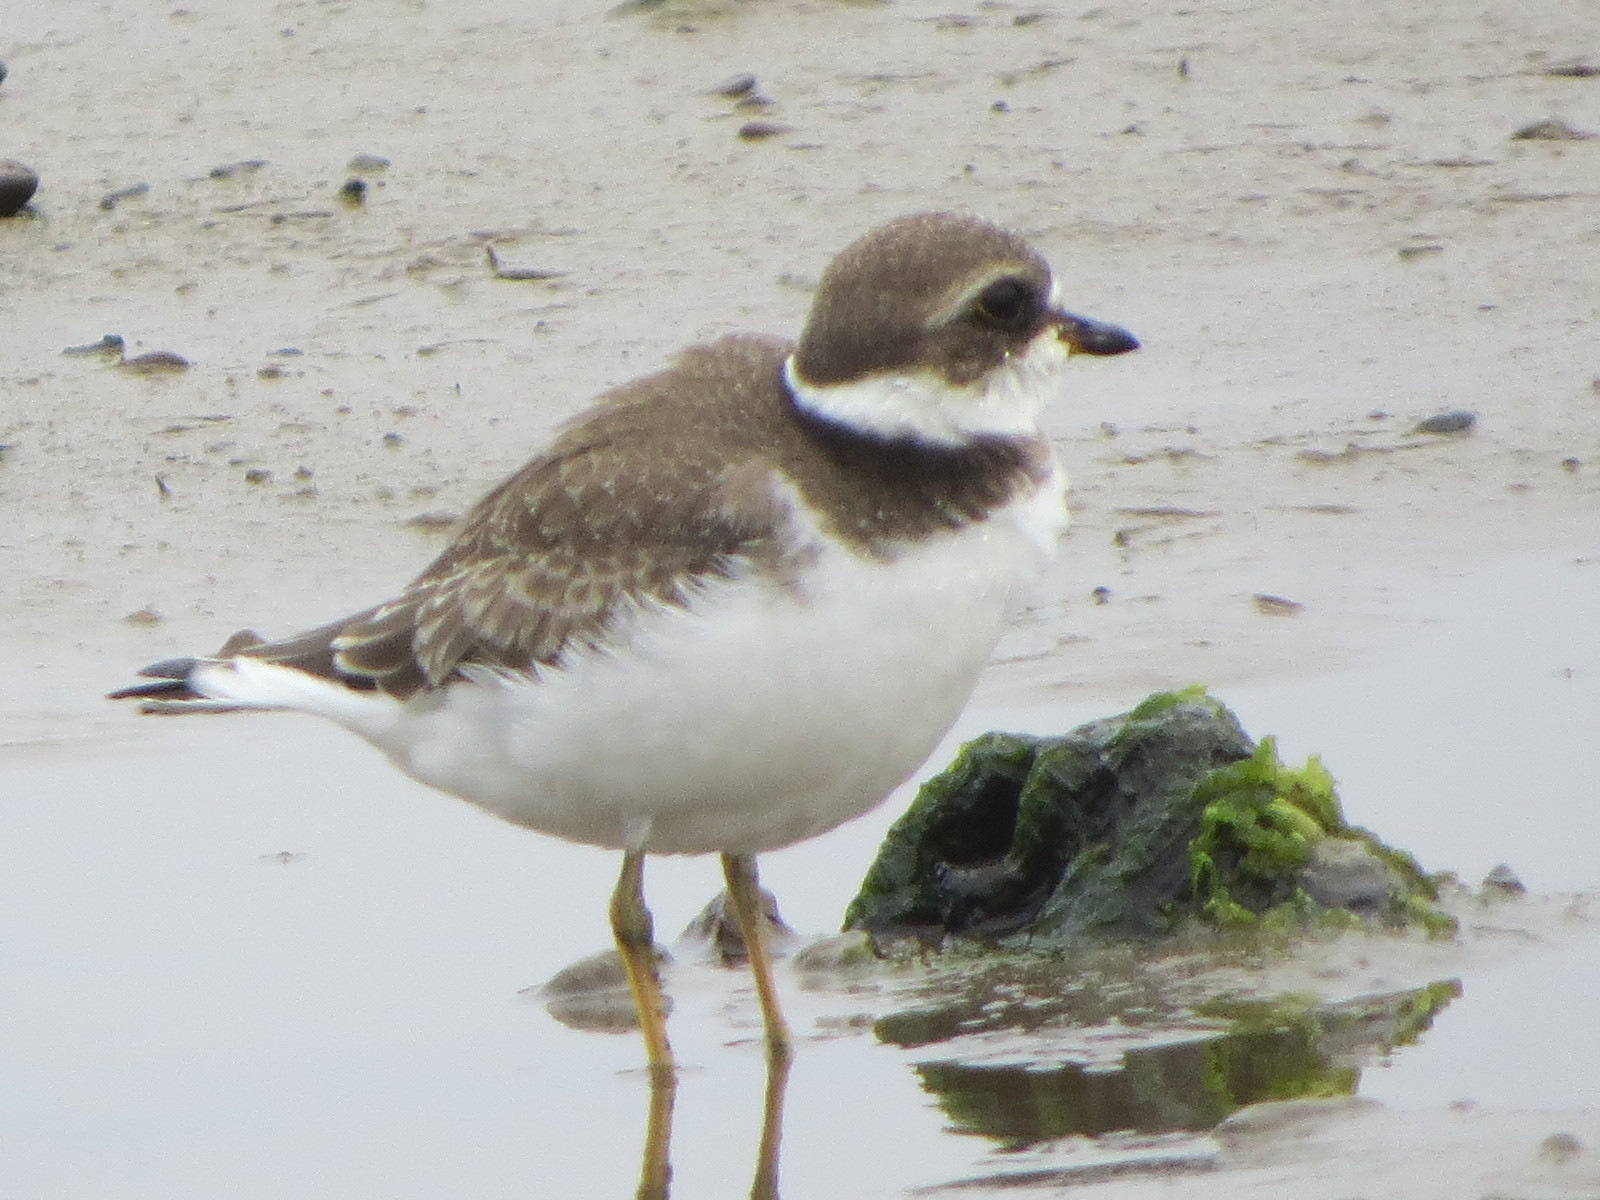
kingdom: Animalia
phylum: Chordata
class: Aves
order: Charadriiformes
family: Charadriidae
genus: Charadrius
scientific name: Charadrius semipalmatus
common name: Semipalmated plover
